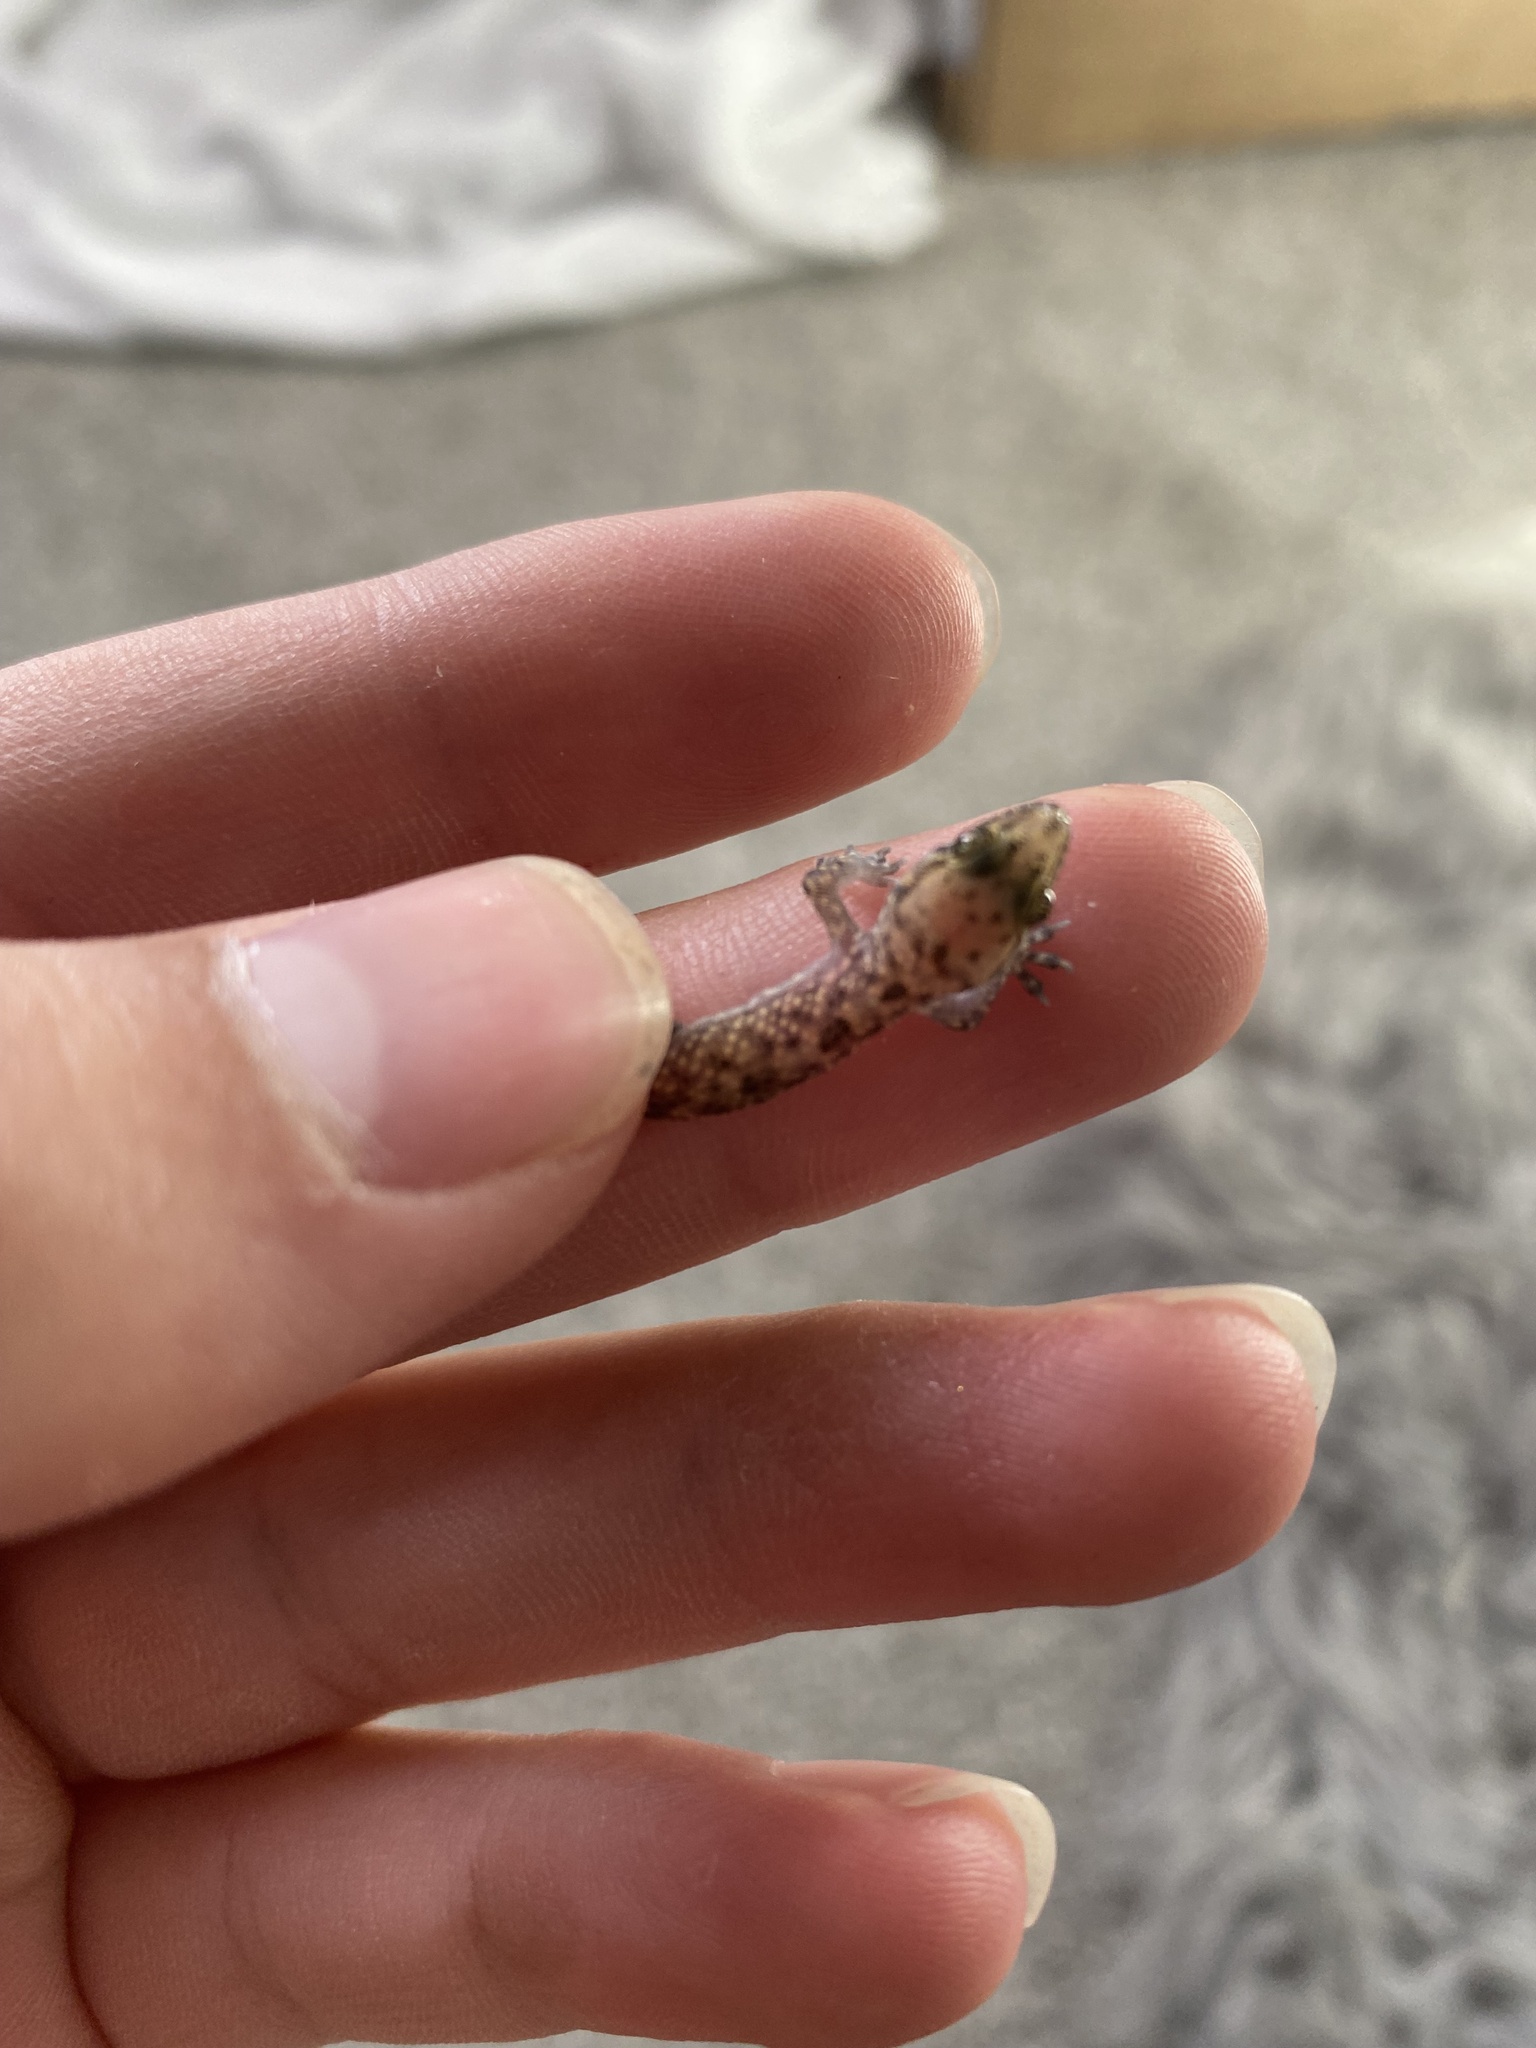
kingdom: Animalia
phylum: Chordata
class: Squamata
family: Gekkonidae
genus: Hemidactylus
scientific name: Hemidactylus turcicus
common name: Turkish gecko
